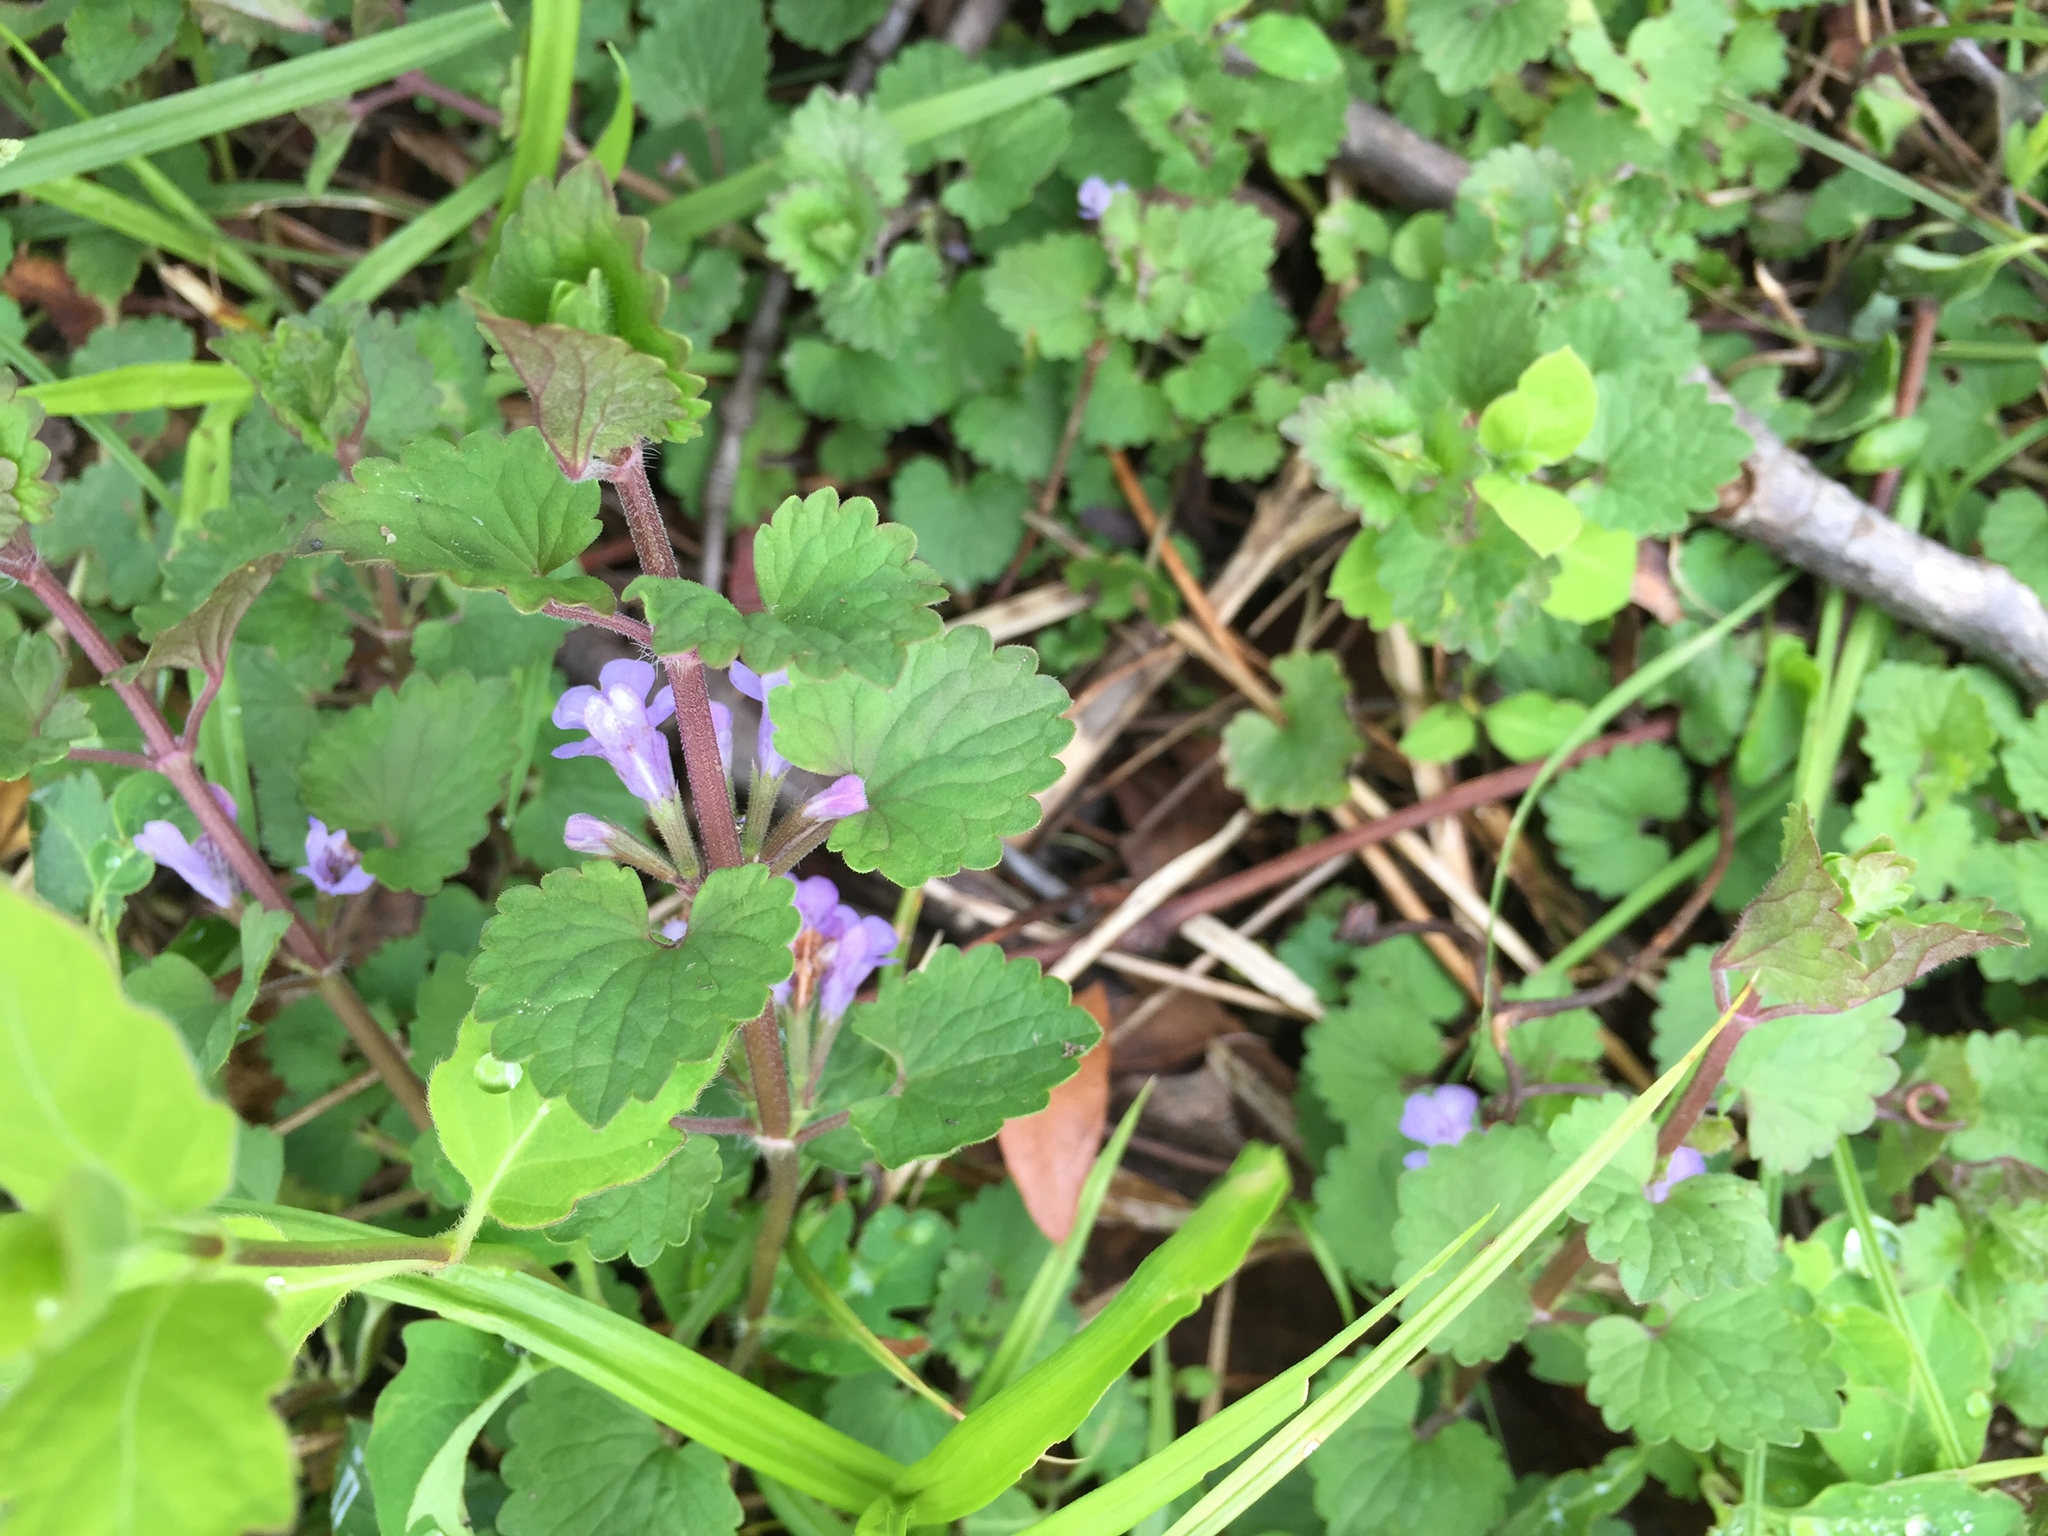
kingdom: Plantae
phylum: Tracheophyta
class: Magnoliopsida
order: Lamiales
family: Lamiaceae
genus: Glechoma
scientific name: Glechoma hederacea
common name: Ground ivy
